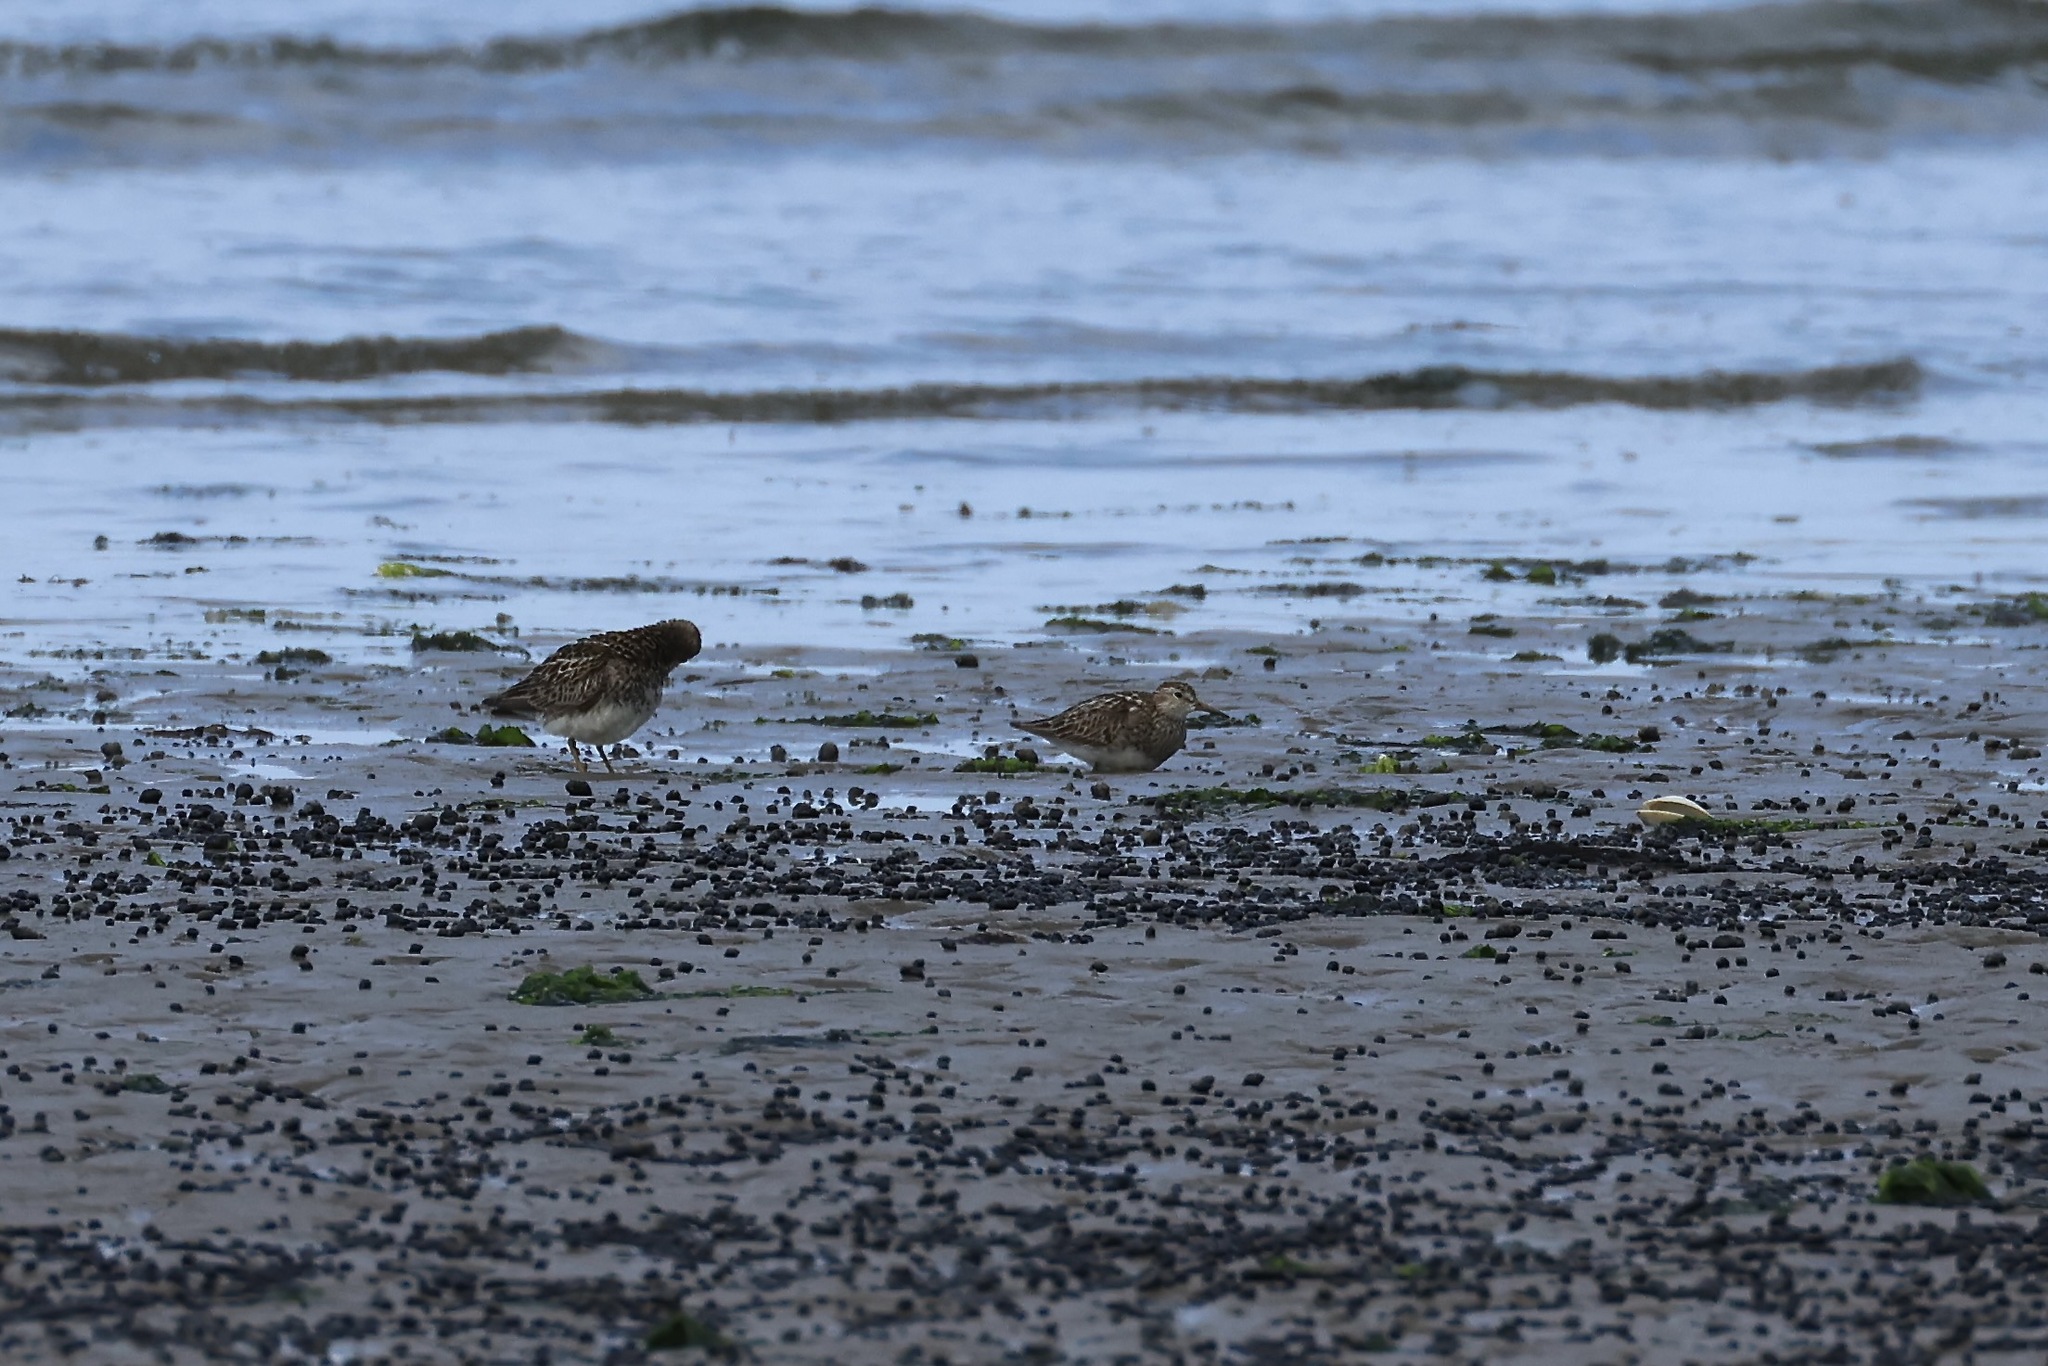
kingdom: Animalia
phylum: Chordata
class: Aves
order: Charadriiformes
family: Scolopacidae
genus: Calidris
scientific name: Calidris melanotos
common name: Pectoral sandpiper
